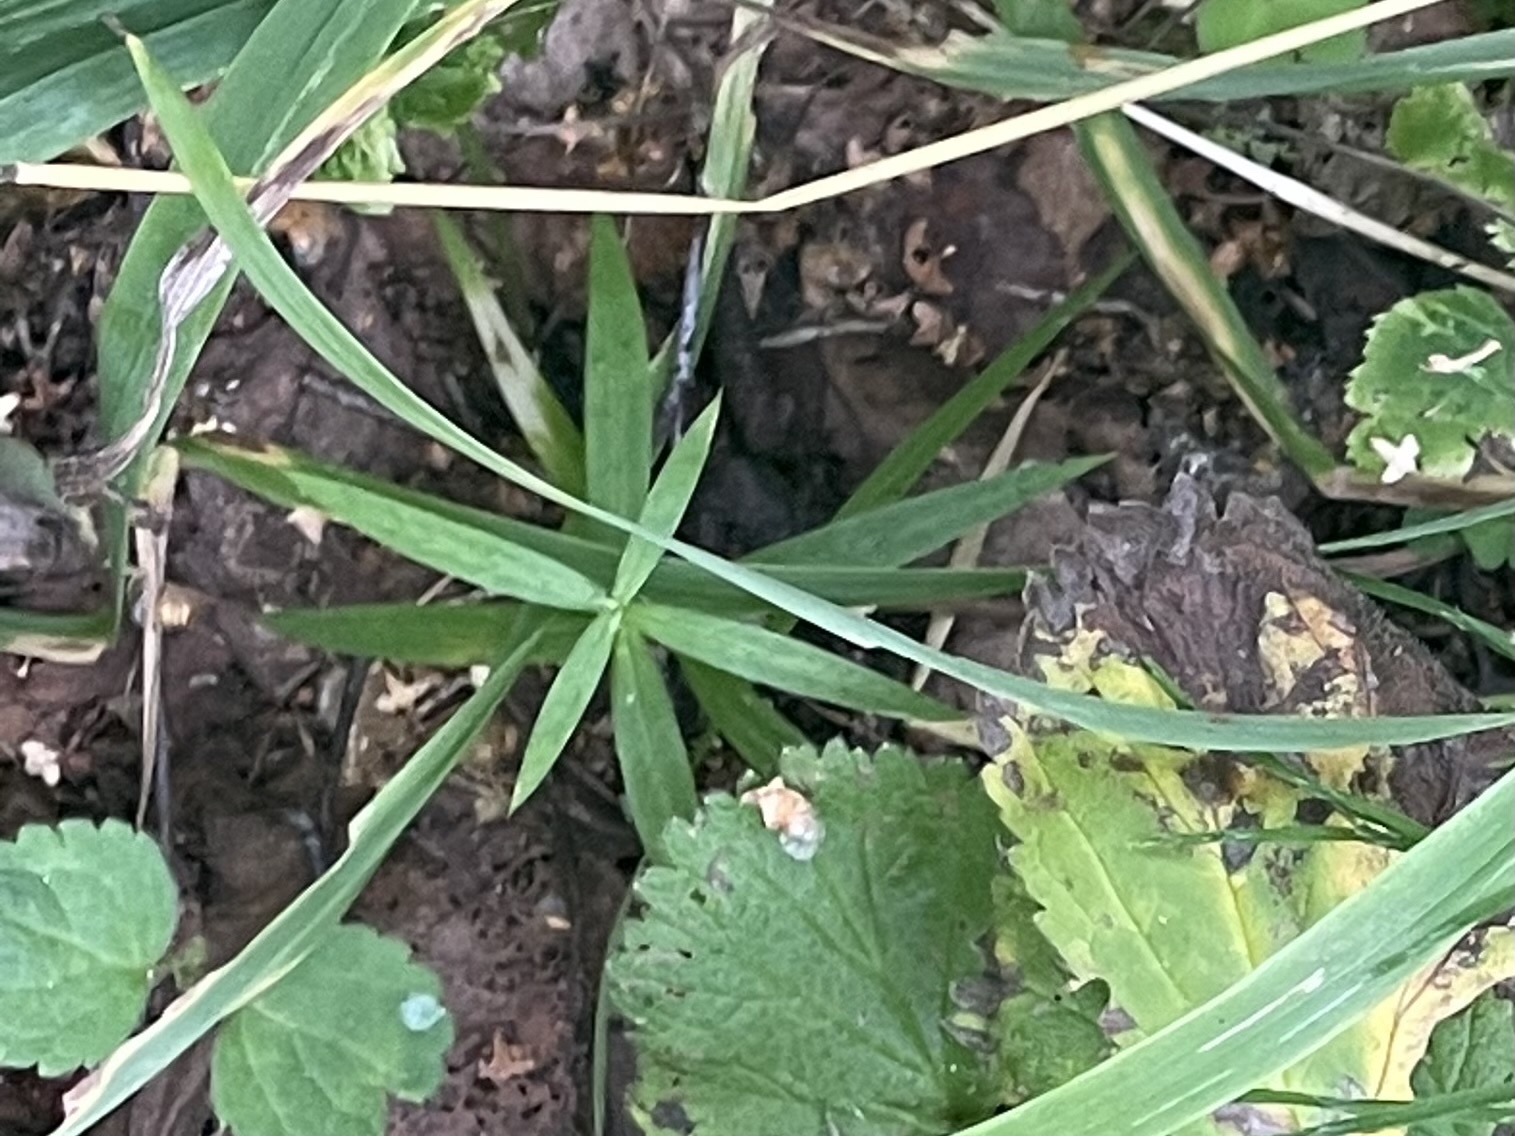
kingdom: Plantae
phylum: Tracheophyta
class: Magnoliopsida
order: Caryophyllales
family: Caryophyllaceae
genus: Rabelera
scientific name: Rabelera holostea
